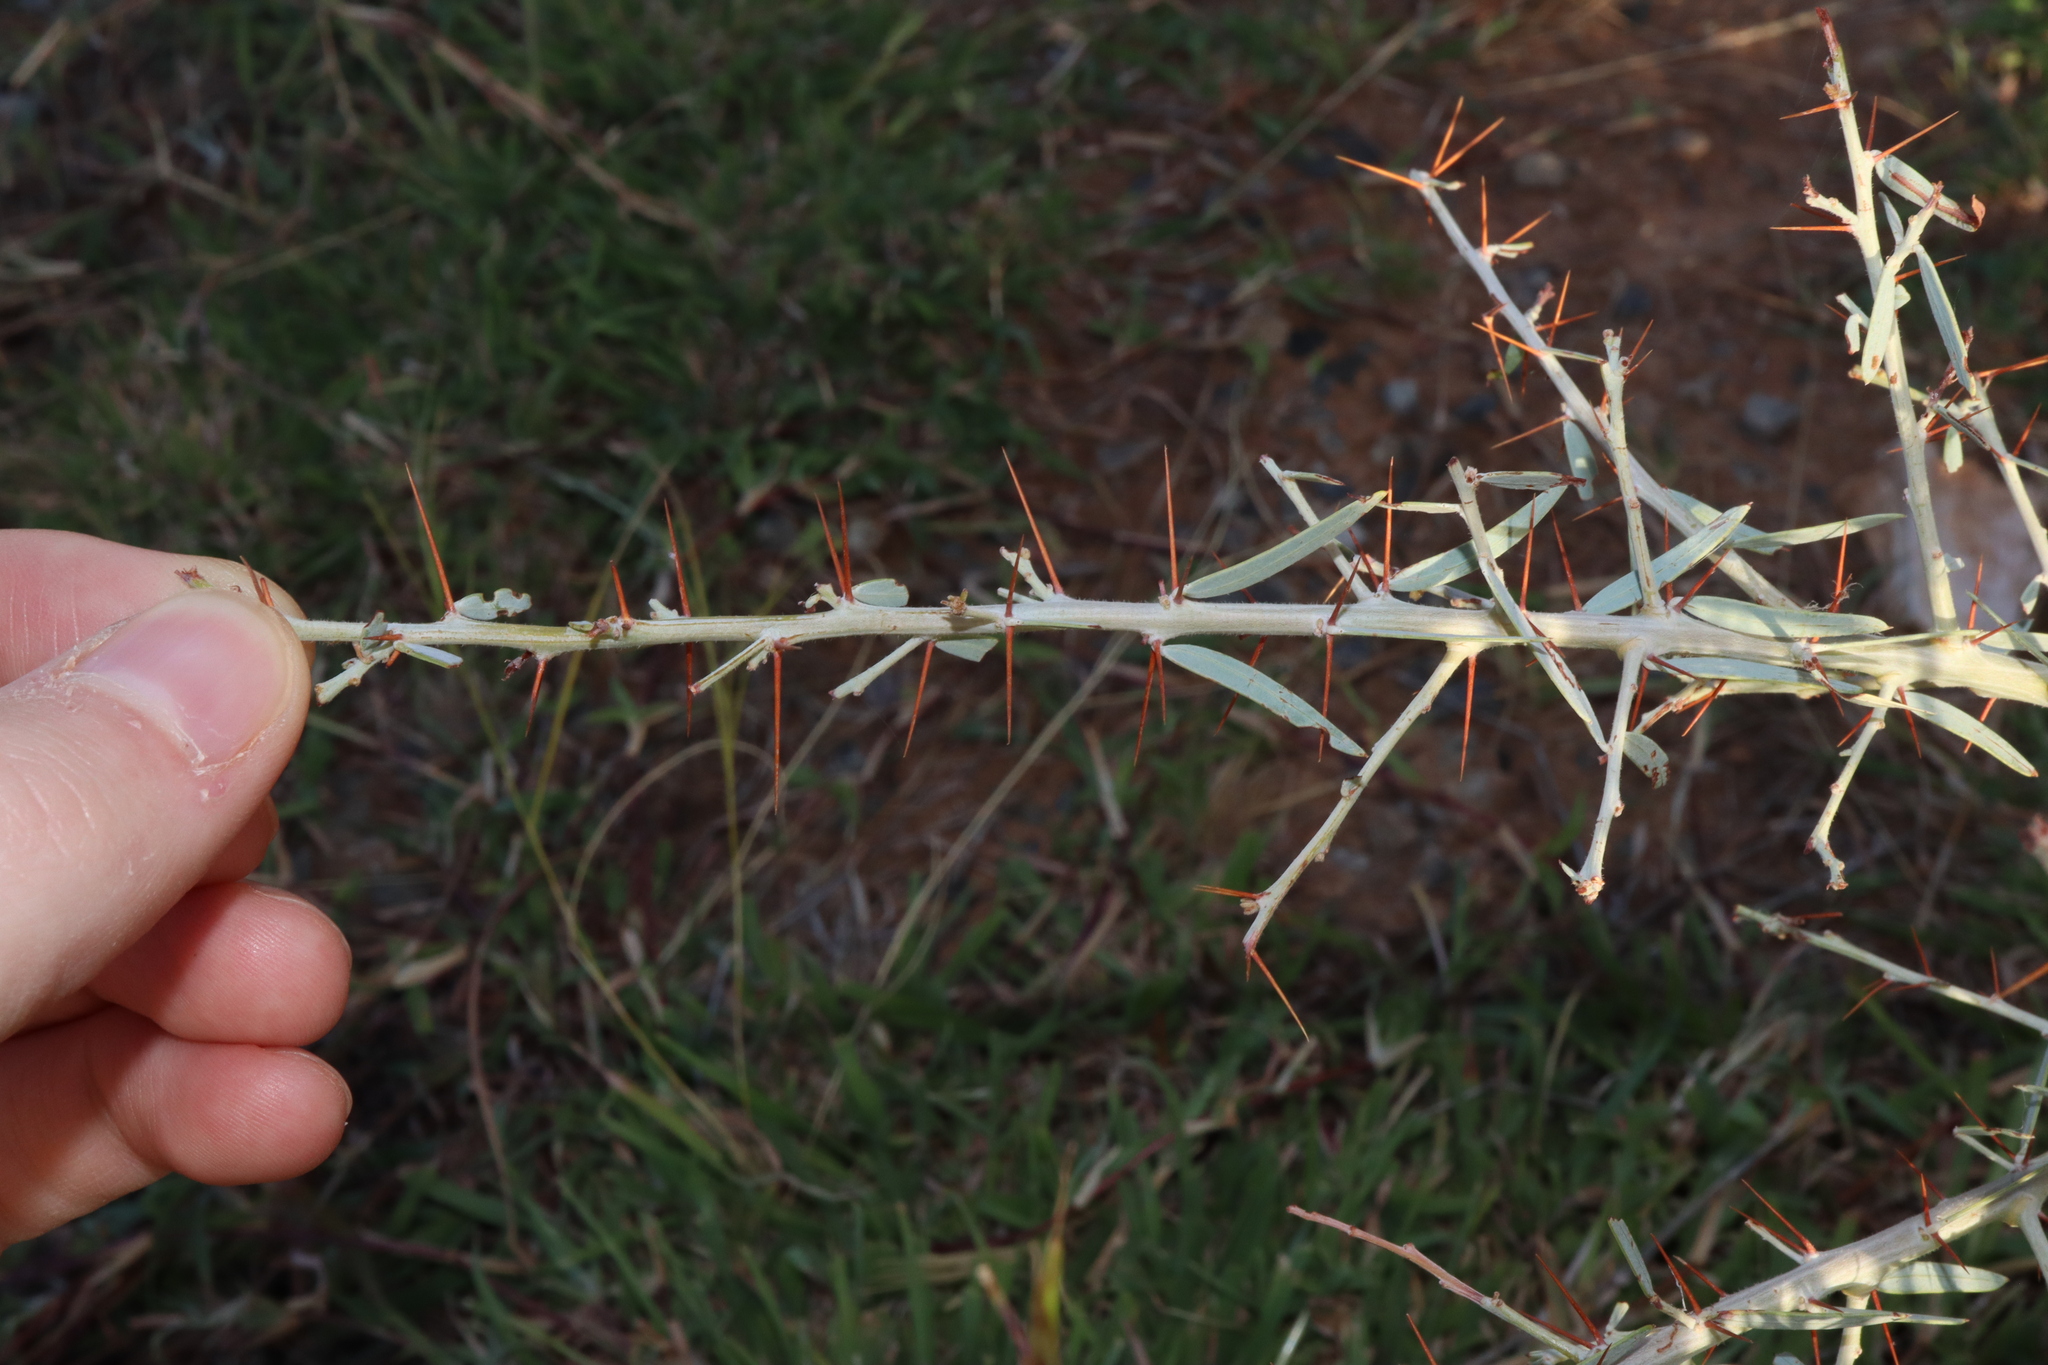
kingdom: Plantae
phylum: Tracheophyta
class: Magnoliopsida
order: Fabales
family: Fabaceae
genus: Acacia
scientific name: Acacia victoriae
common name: Bramble wattle
